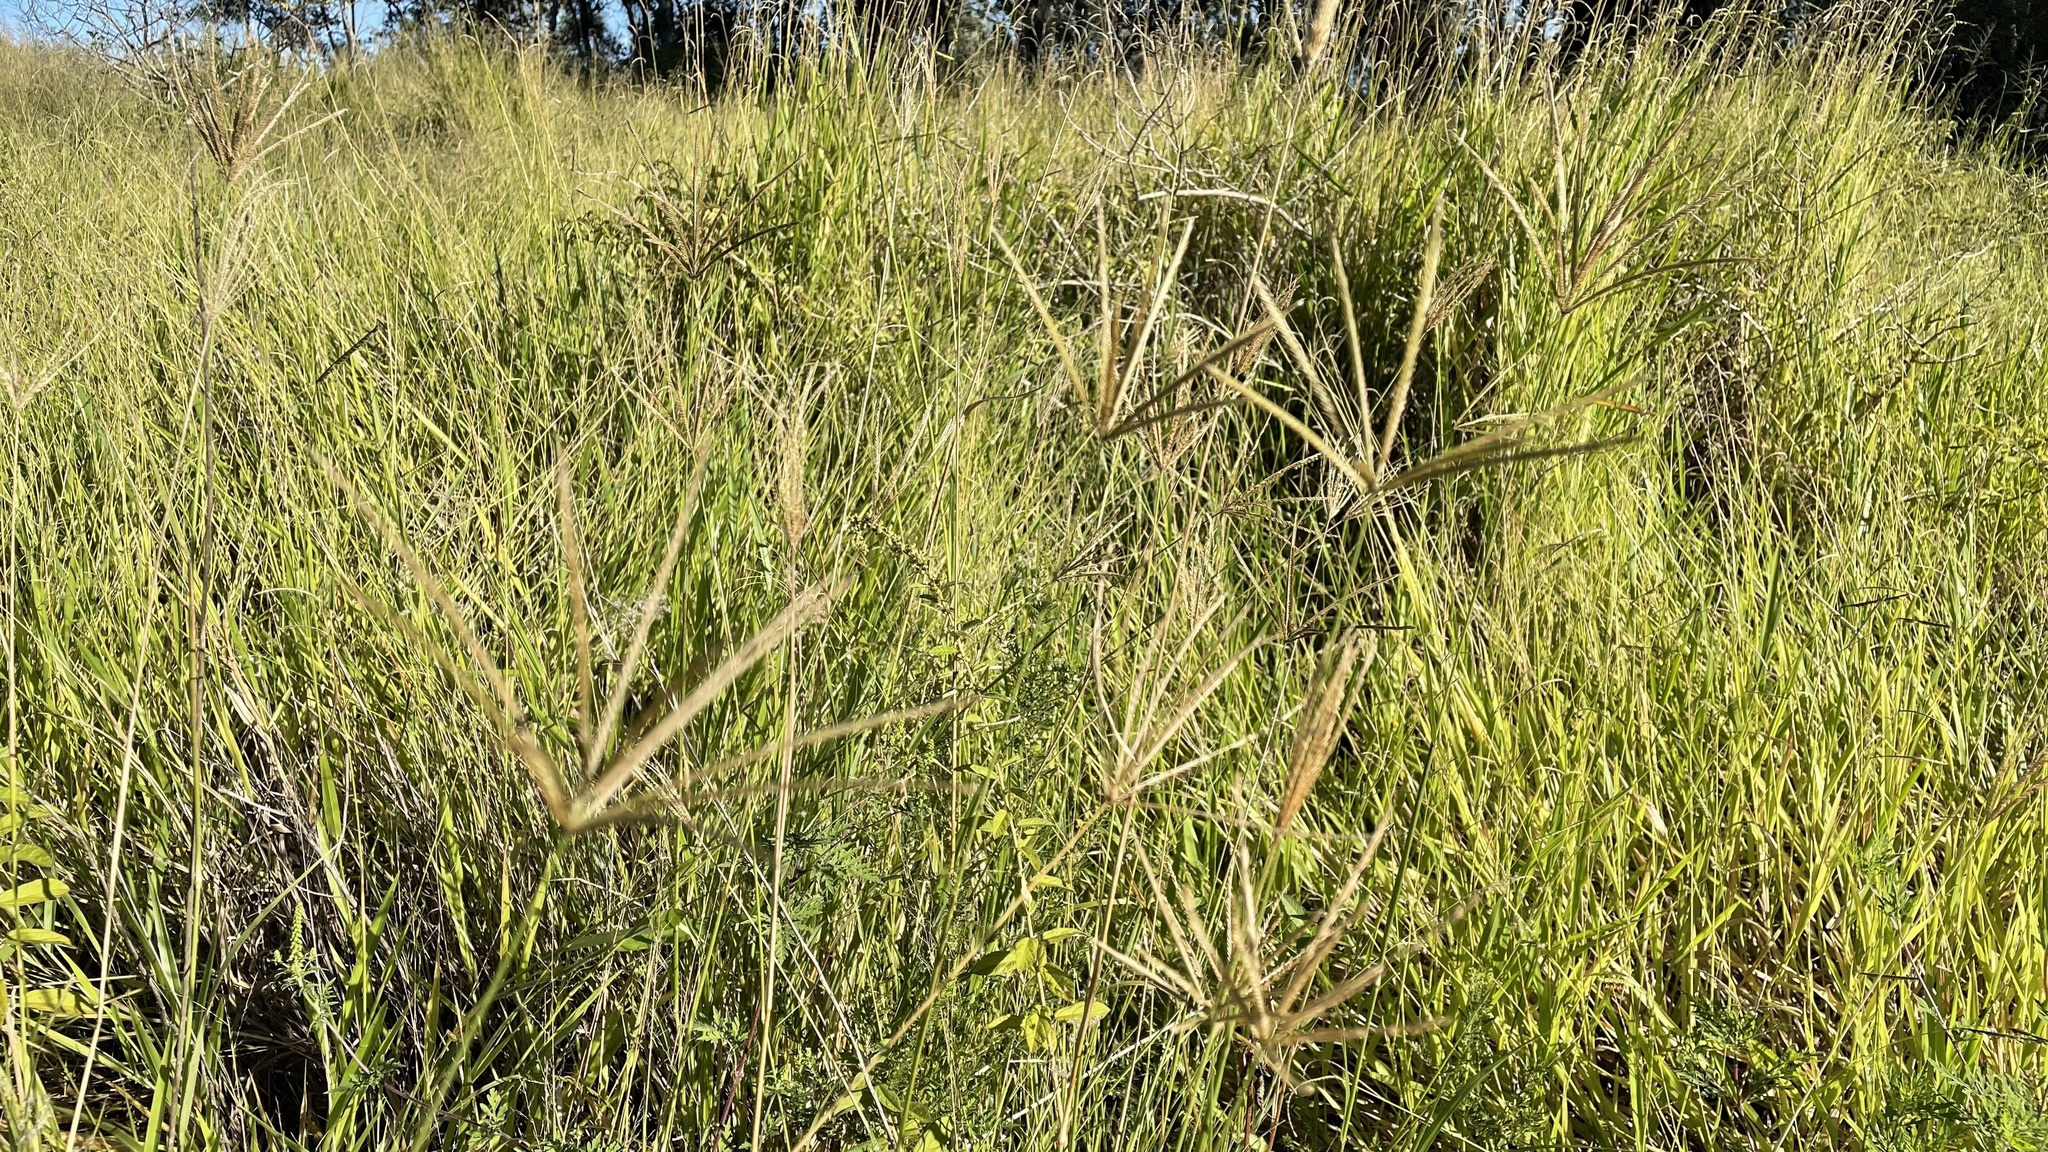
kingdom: Plantae
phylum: Tracheophyta
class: Liliopsida
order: Poales
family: Poaceae
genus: Chloris
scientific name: Chloris gayana
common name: Rhodes grass
